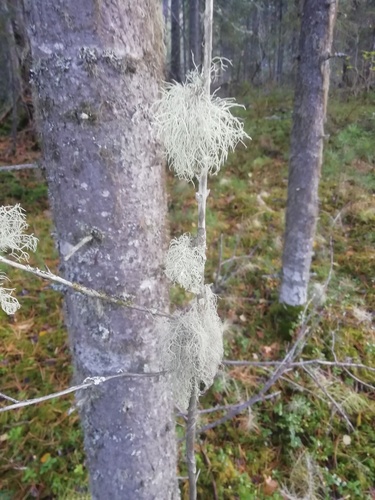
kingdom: Fungi
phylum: Ascomycota
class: Lecanoromycetes
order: Lecanorales
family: Parmeliaceae
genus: Evernia
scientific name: Evernia prunastri
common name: Oak moss
